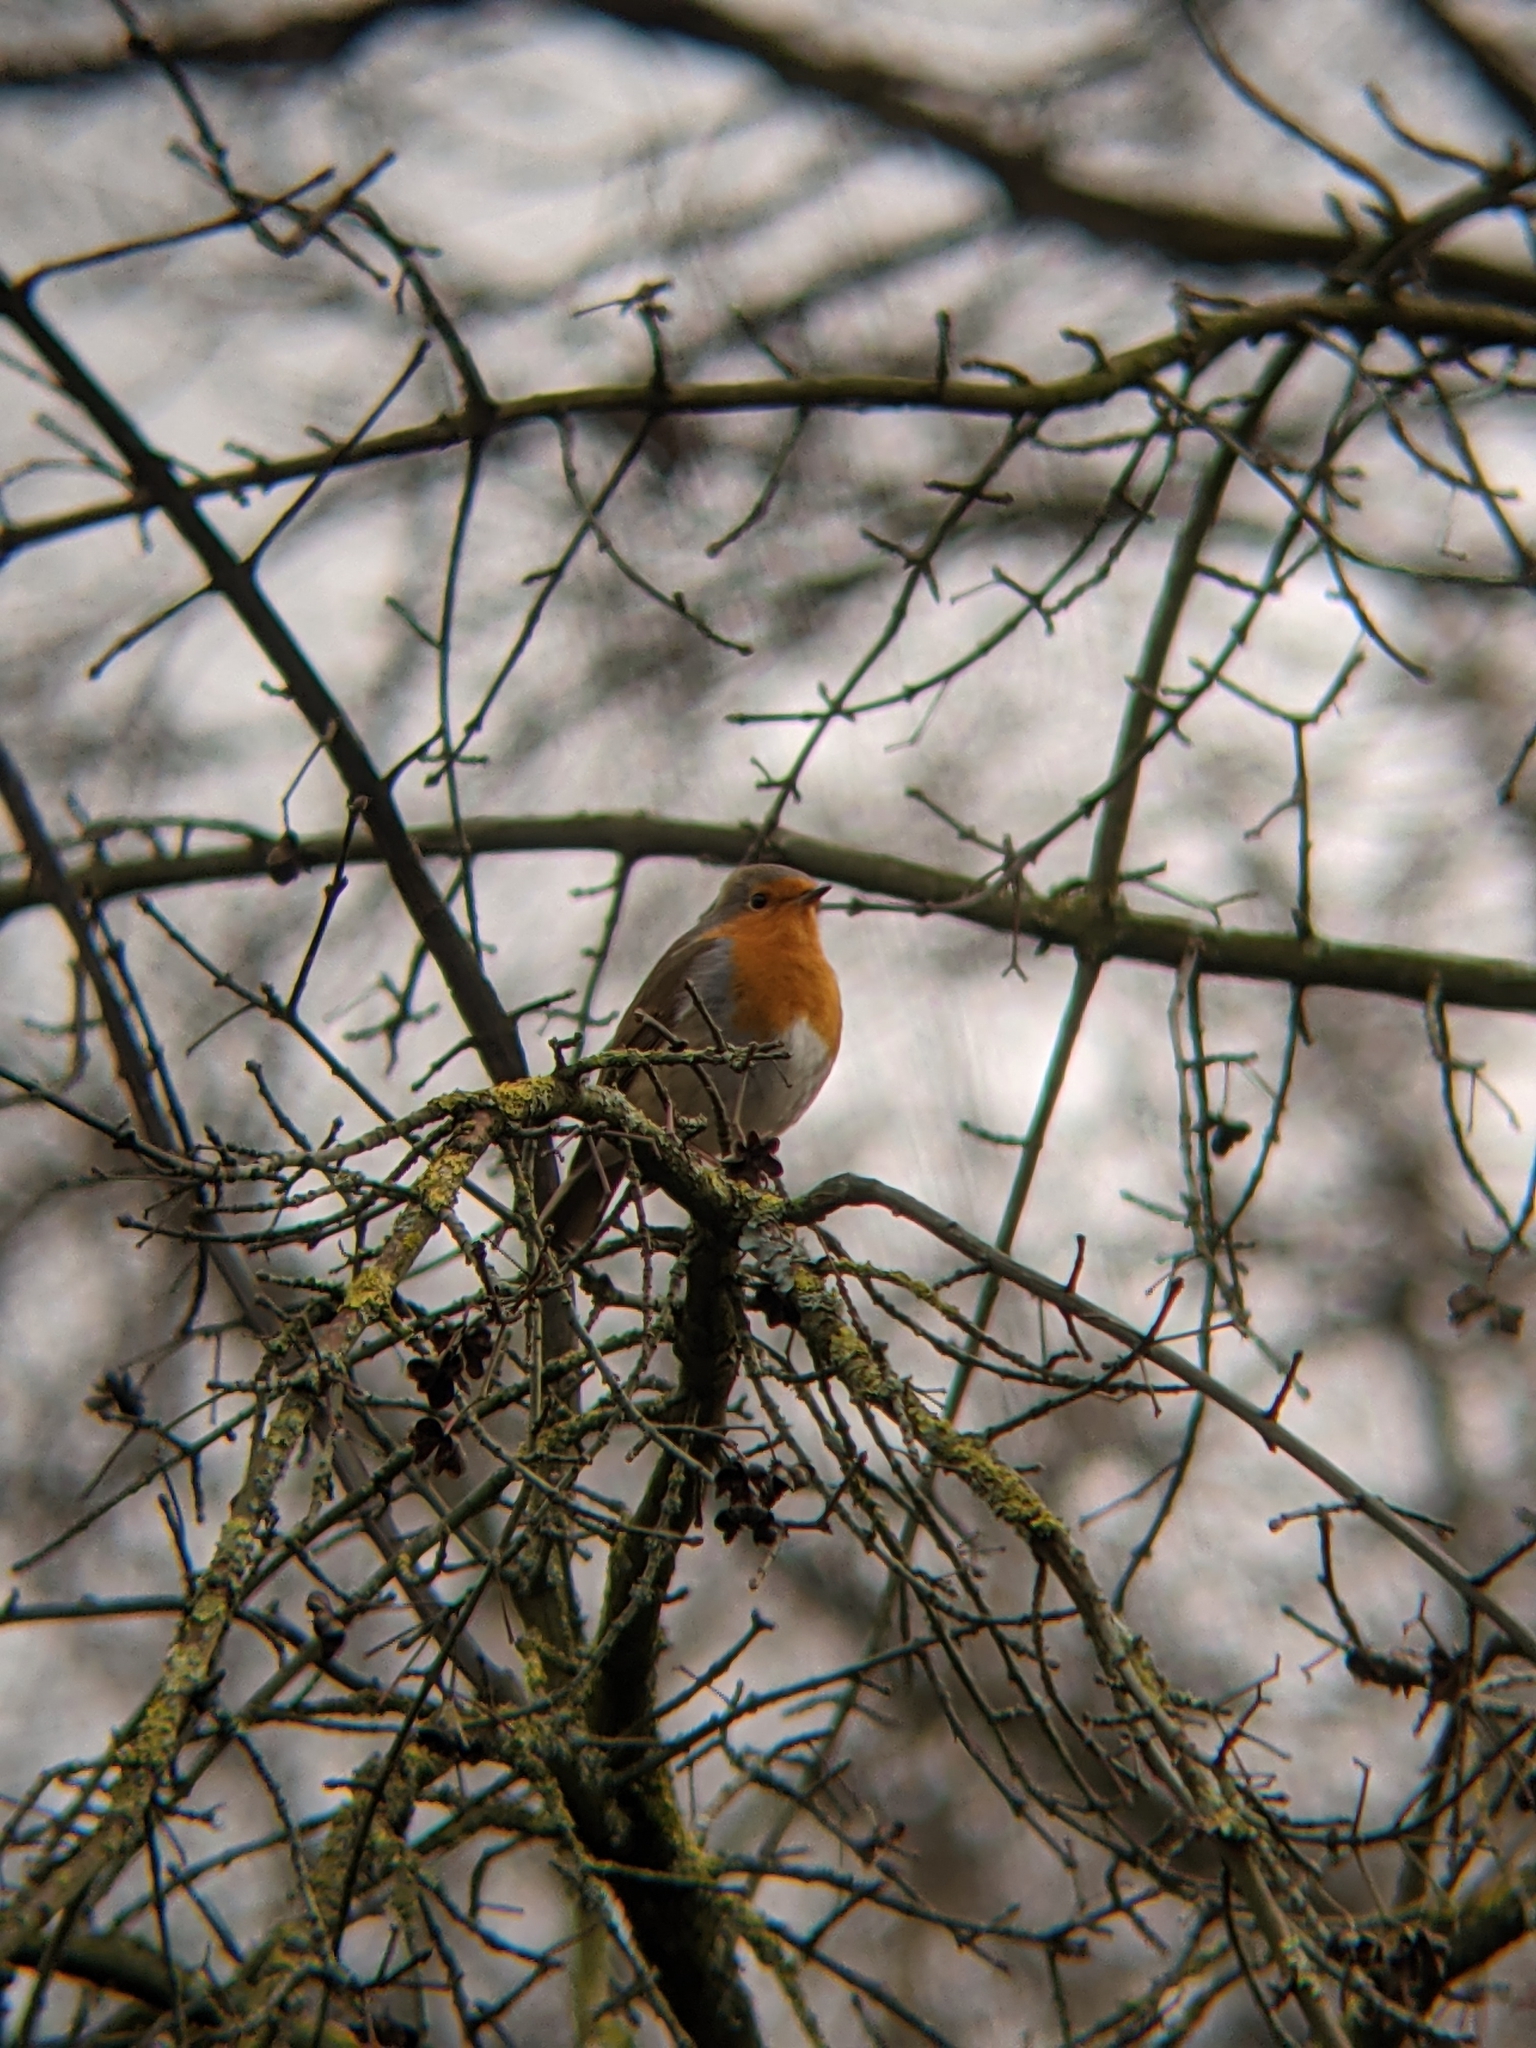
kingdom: Animalia
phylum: Chordata
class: Aves
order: Passeriformes
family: Muscicapidae
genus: Erithacus
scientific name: Erithacus rubecula
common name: European robin
